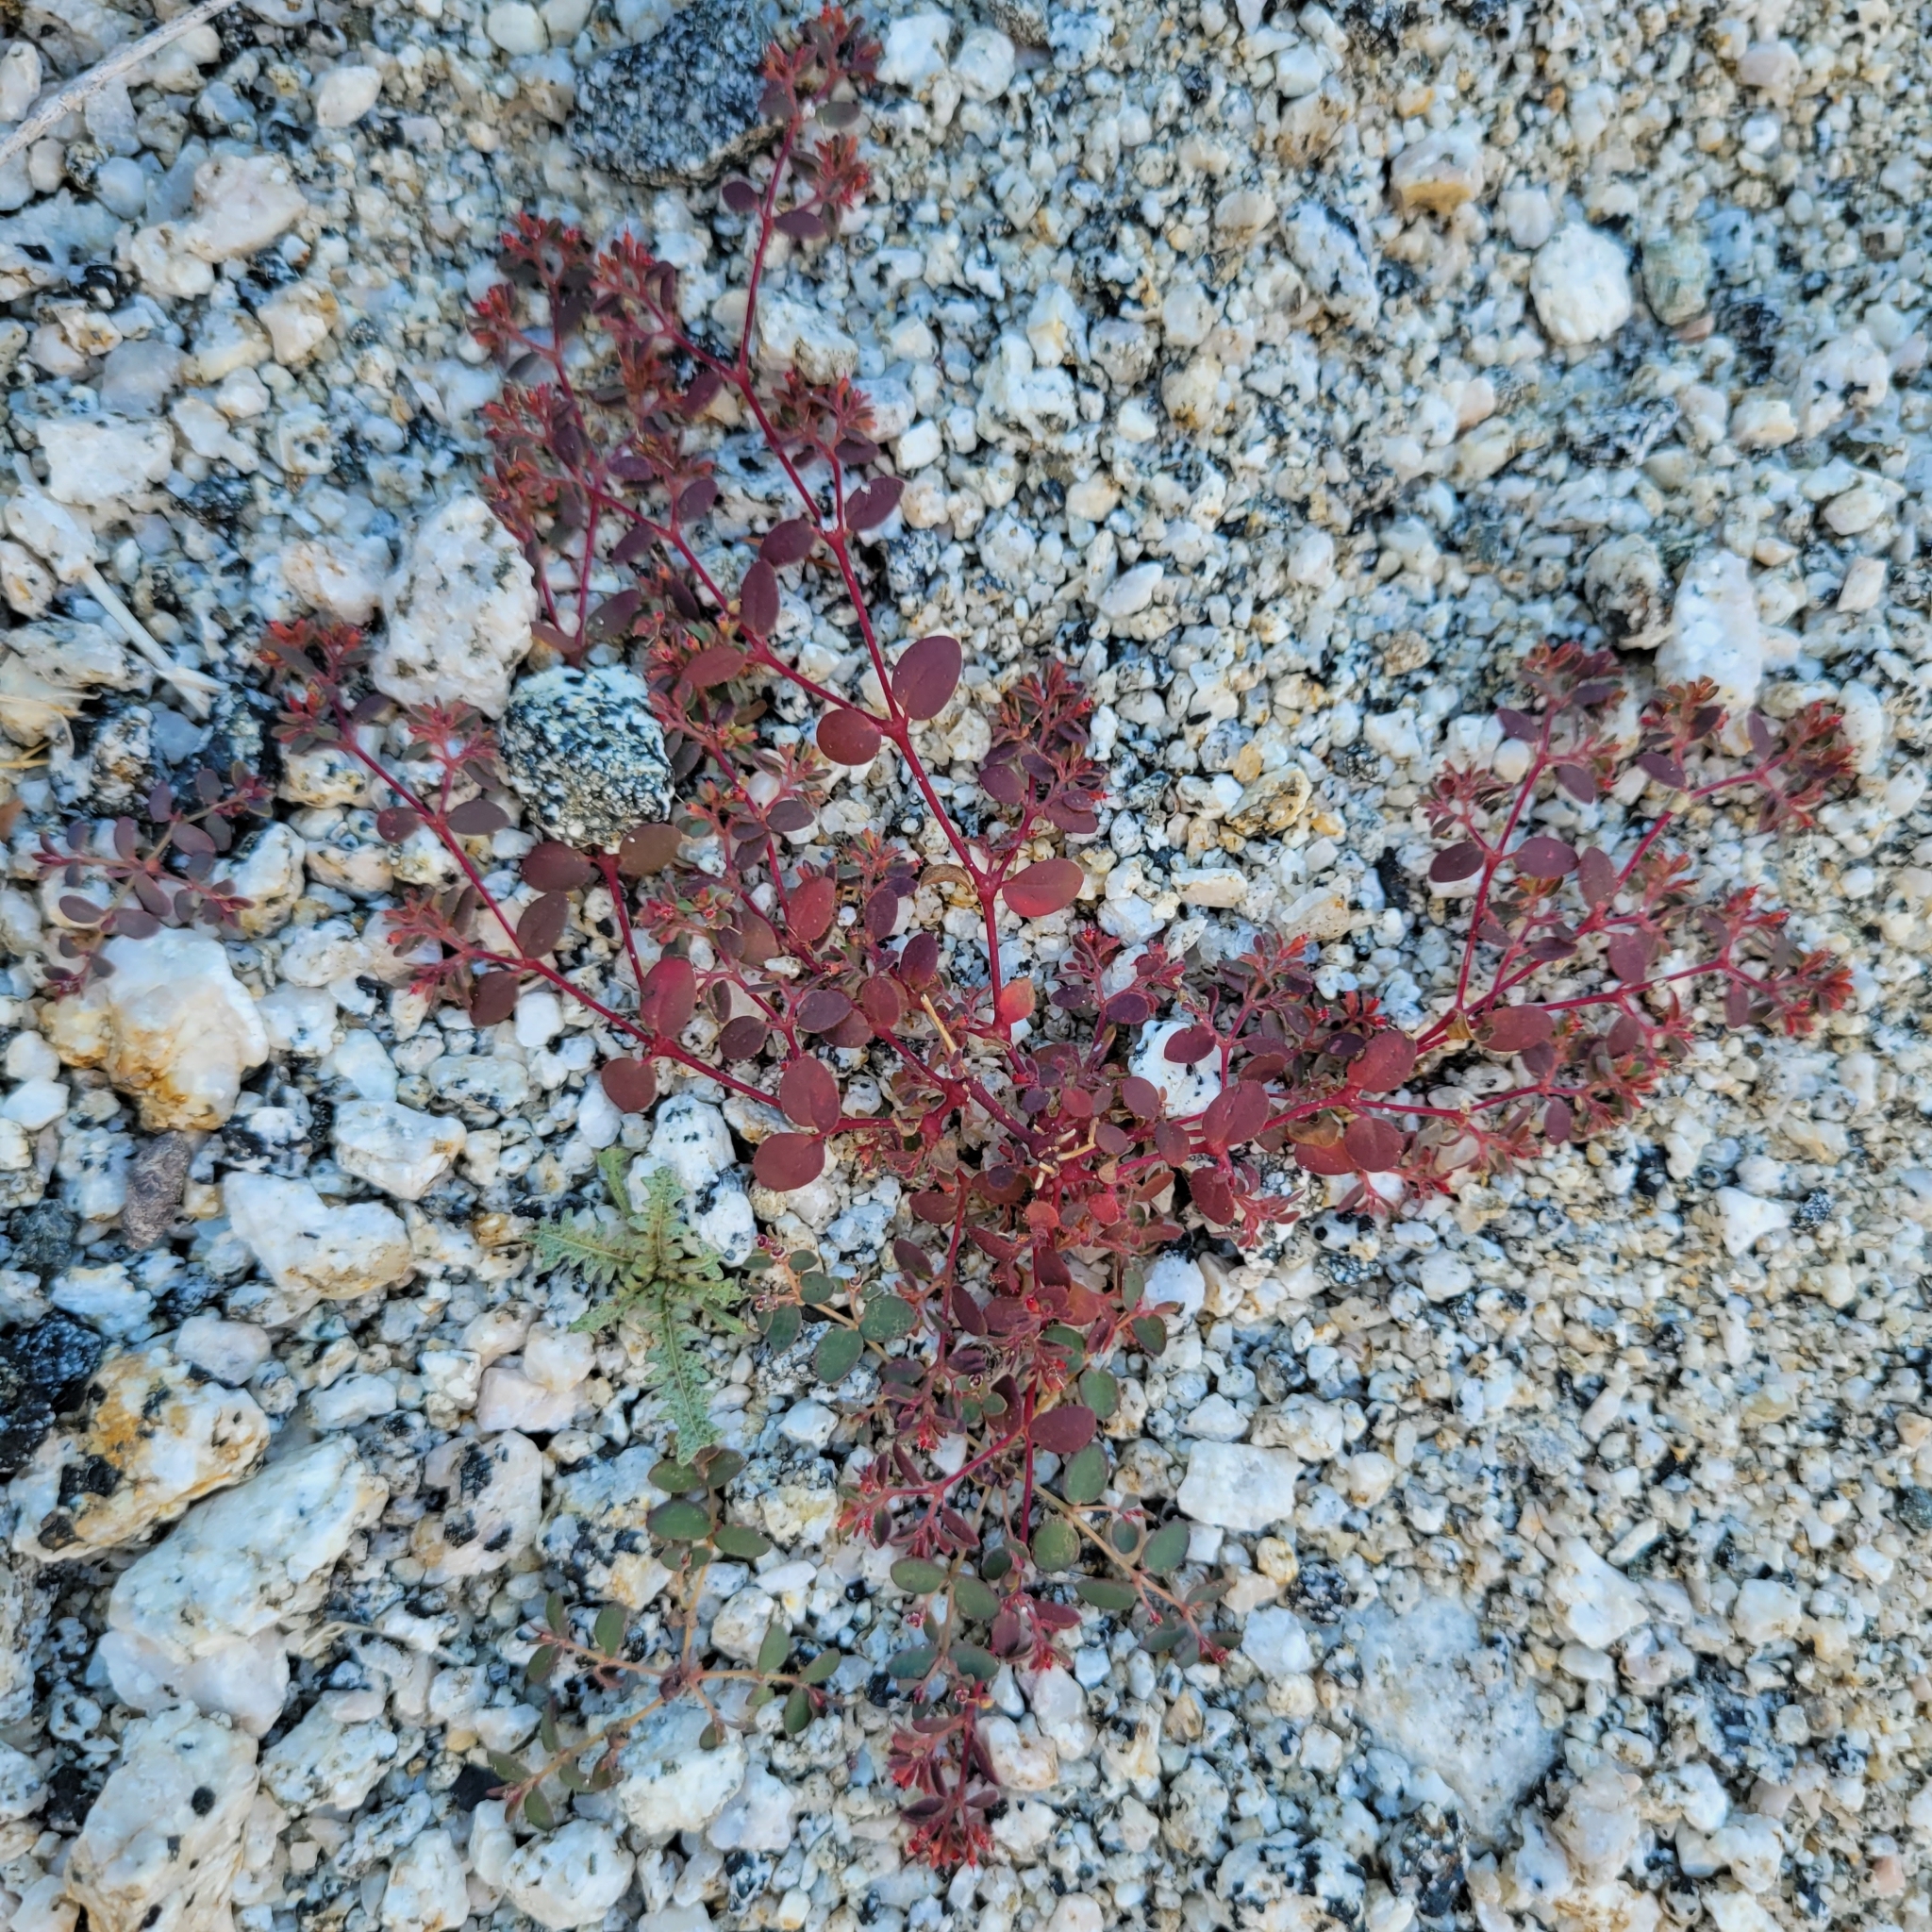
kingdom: Plantae
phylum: Tracheophyta
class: Magnoliopsida
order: Malpighiales
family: Euphorbiaceae
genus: Euphorbia
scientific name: Euphorbia setiloba
